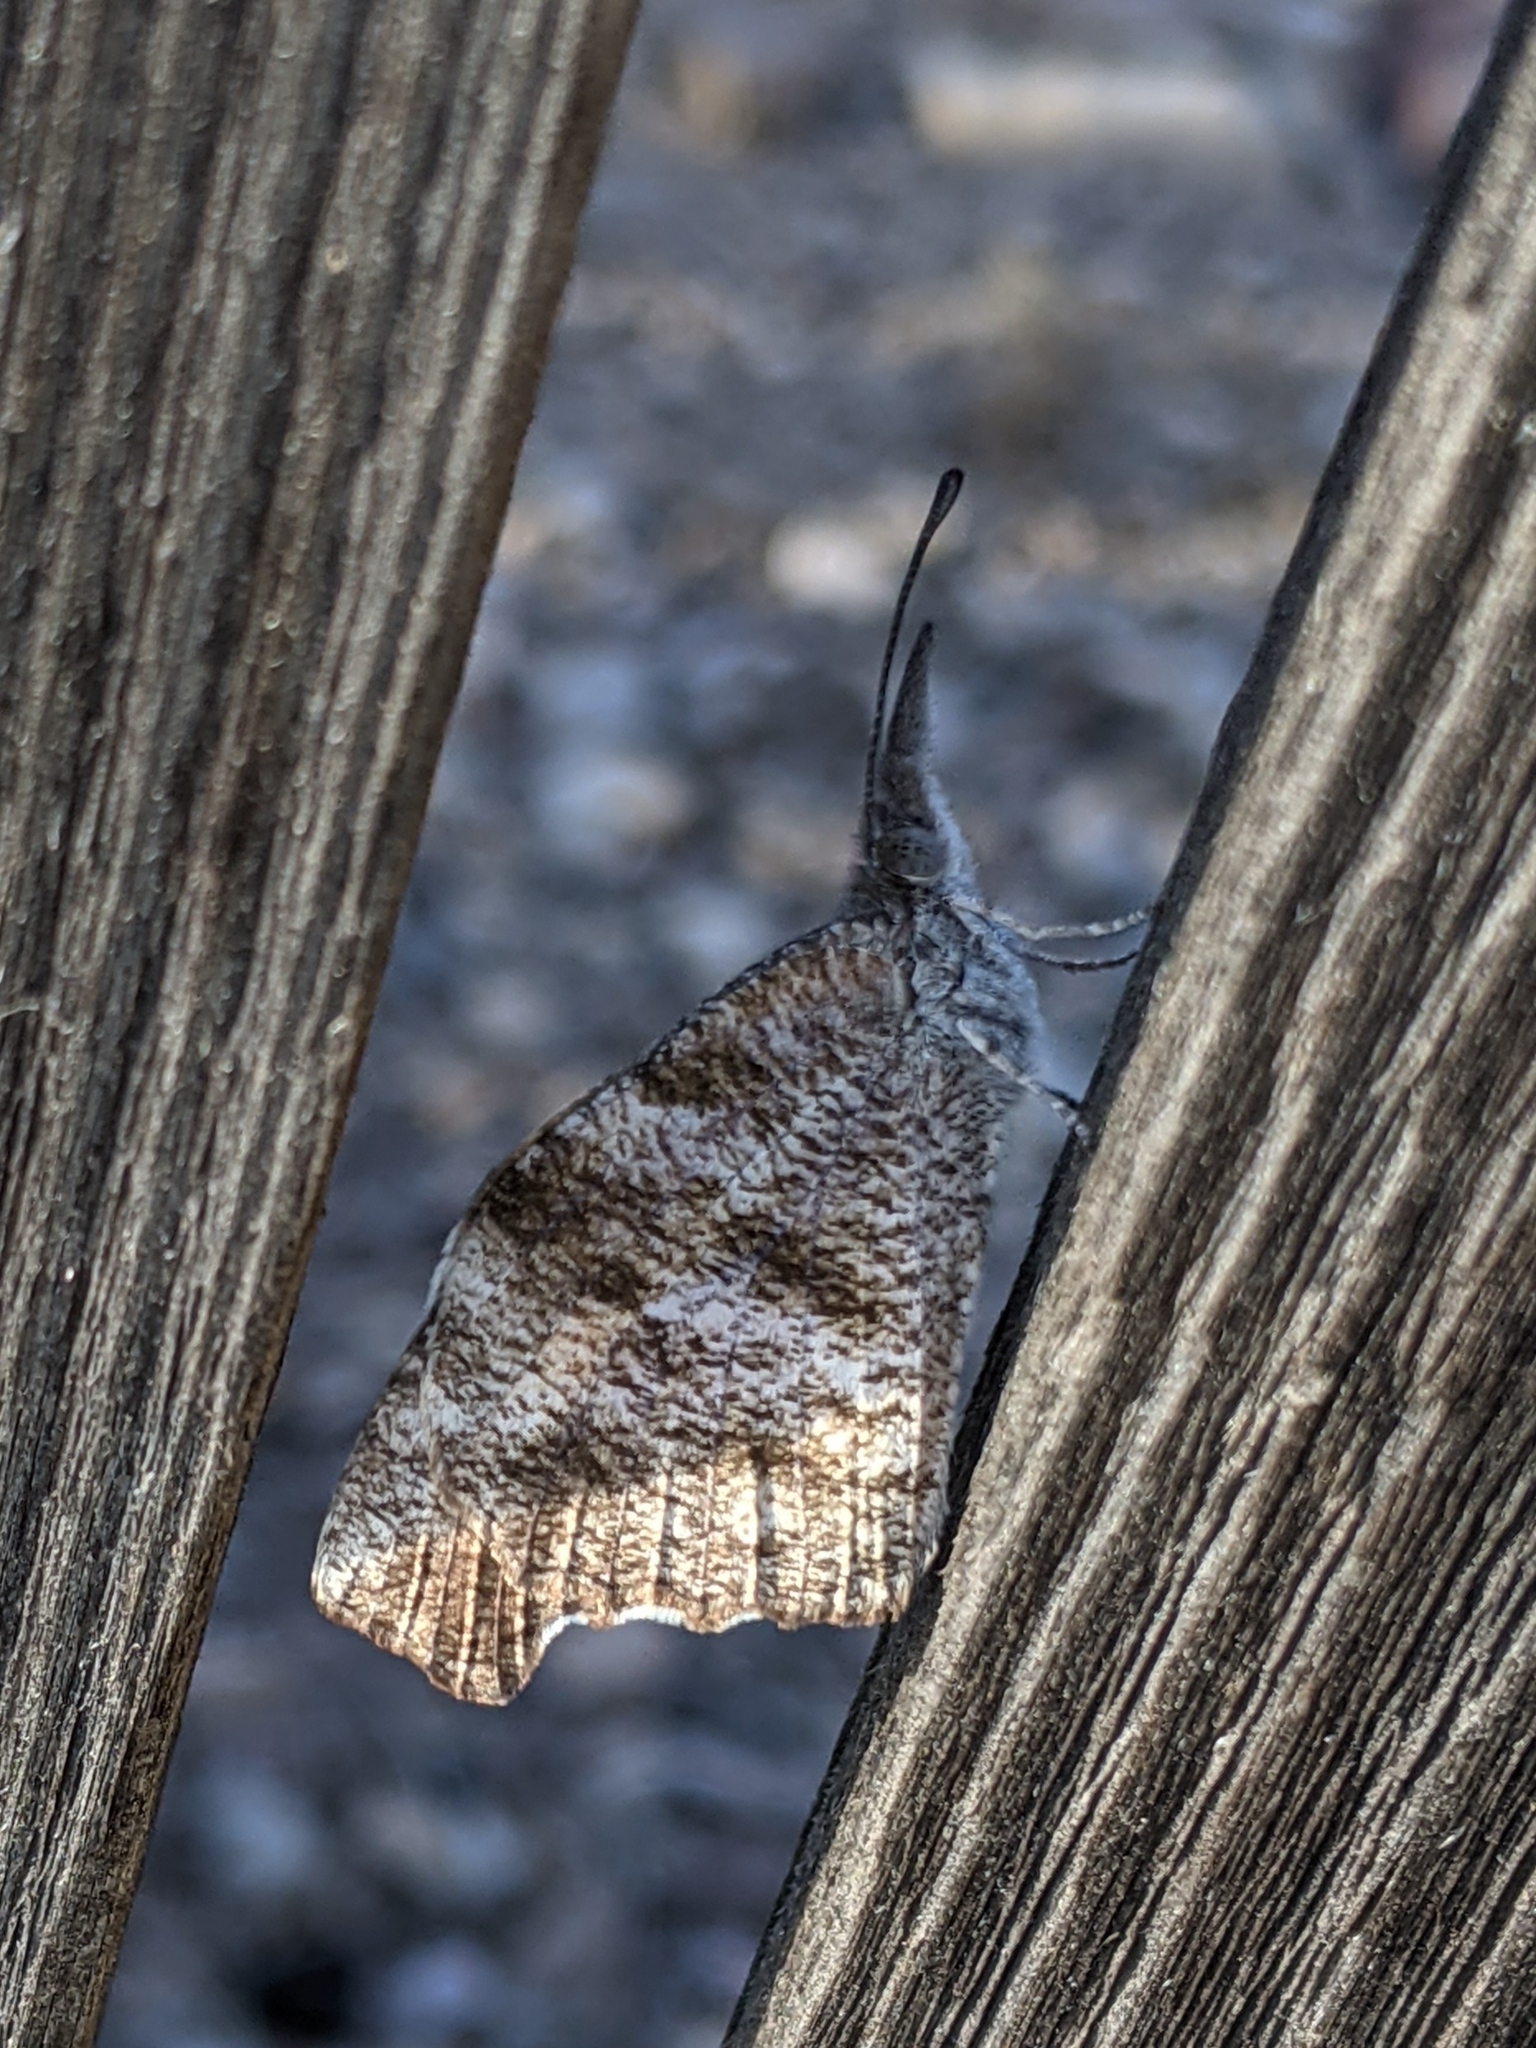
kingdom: Animalia
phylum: Arthropoda
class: Insecta
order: Lepidoptera
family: Nymphalidae
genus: Libytheana
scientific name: Libytheana carinenta
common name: American snout
